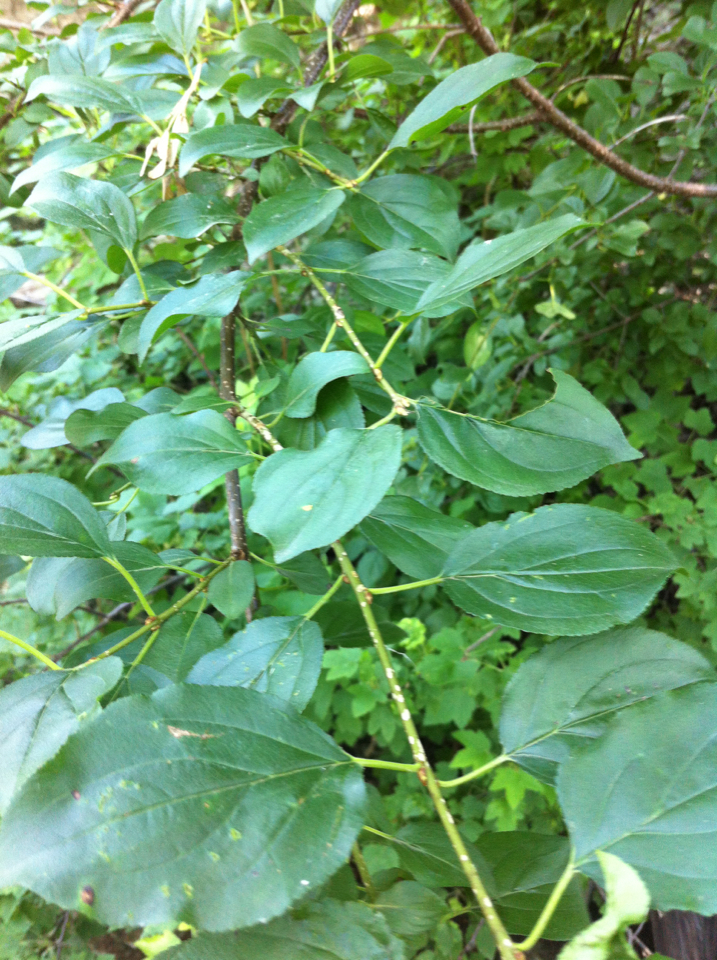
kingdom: Plantae
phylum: Tracheophyta
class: Magnoliopsida
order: Rosales
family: Rhamnaceae
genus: Rhamnus
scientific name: Rhamnus cathartica
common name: Common buckthorn
